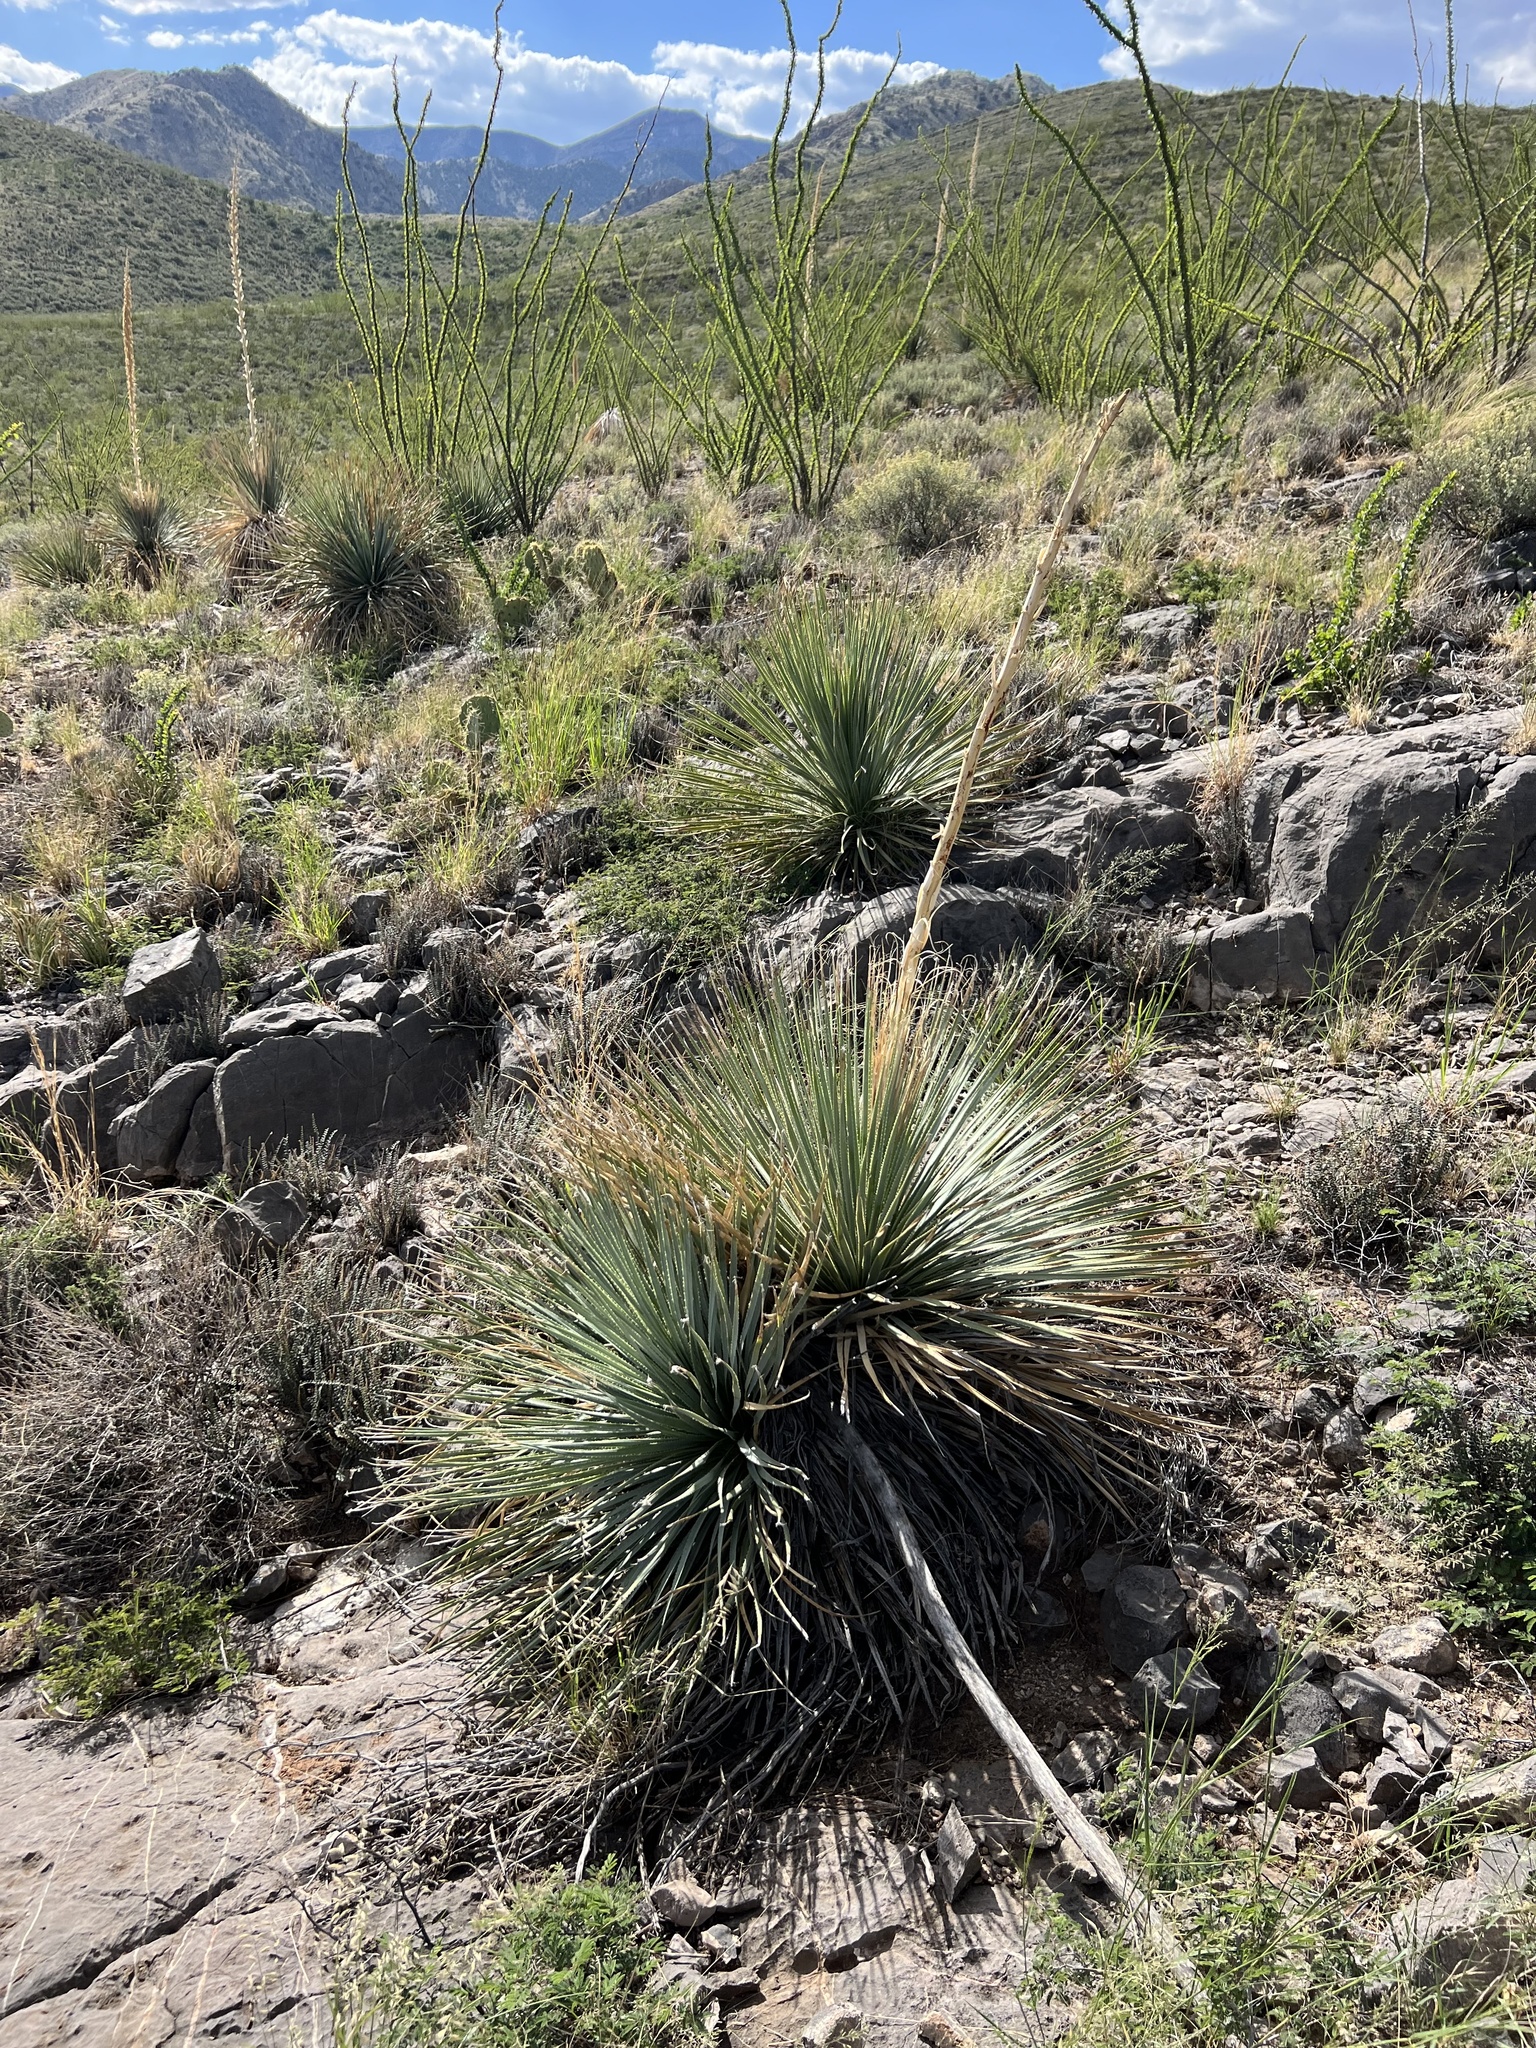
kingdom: Plantae
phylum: Tracheophyta
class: Liliopsida
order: Asparagales
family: Asparagaceae
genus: Dasylirion
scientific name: Dasylirion wheeleri
